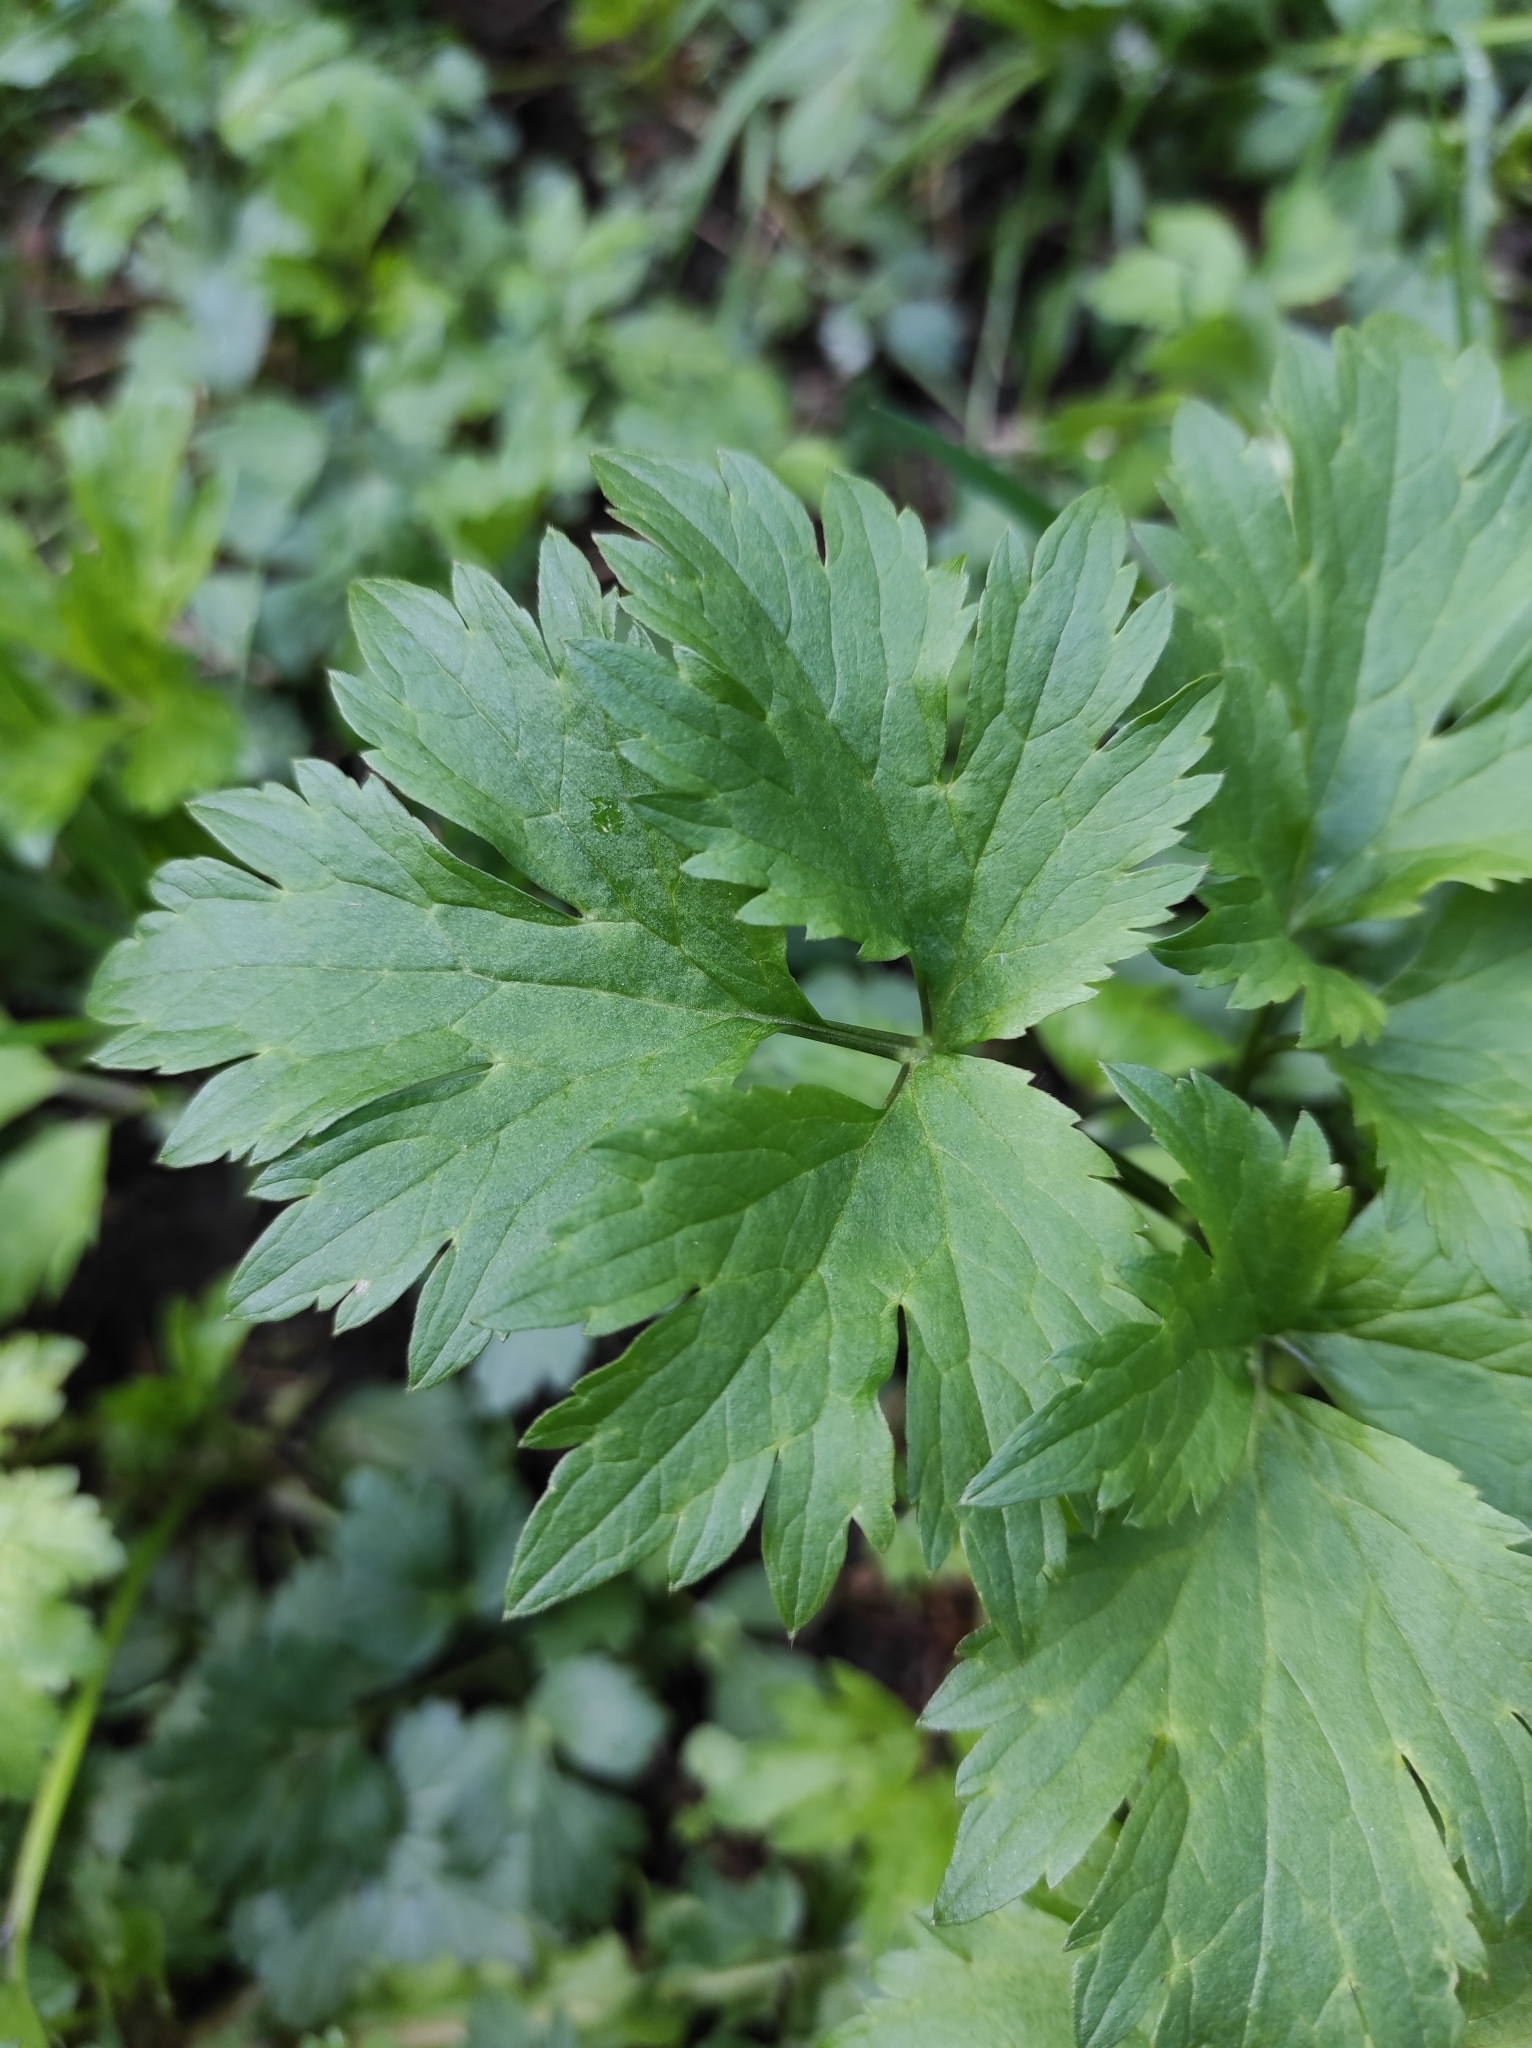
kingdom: Plantae
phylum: Tracheophyta
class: Magnoliopsida
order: Ranunculales
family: Ranunculaceae
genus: Ranunculus
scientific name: Ranunculus repens
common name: Creeping buttercup
